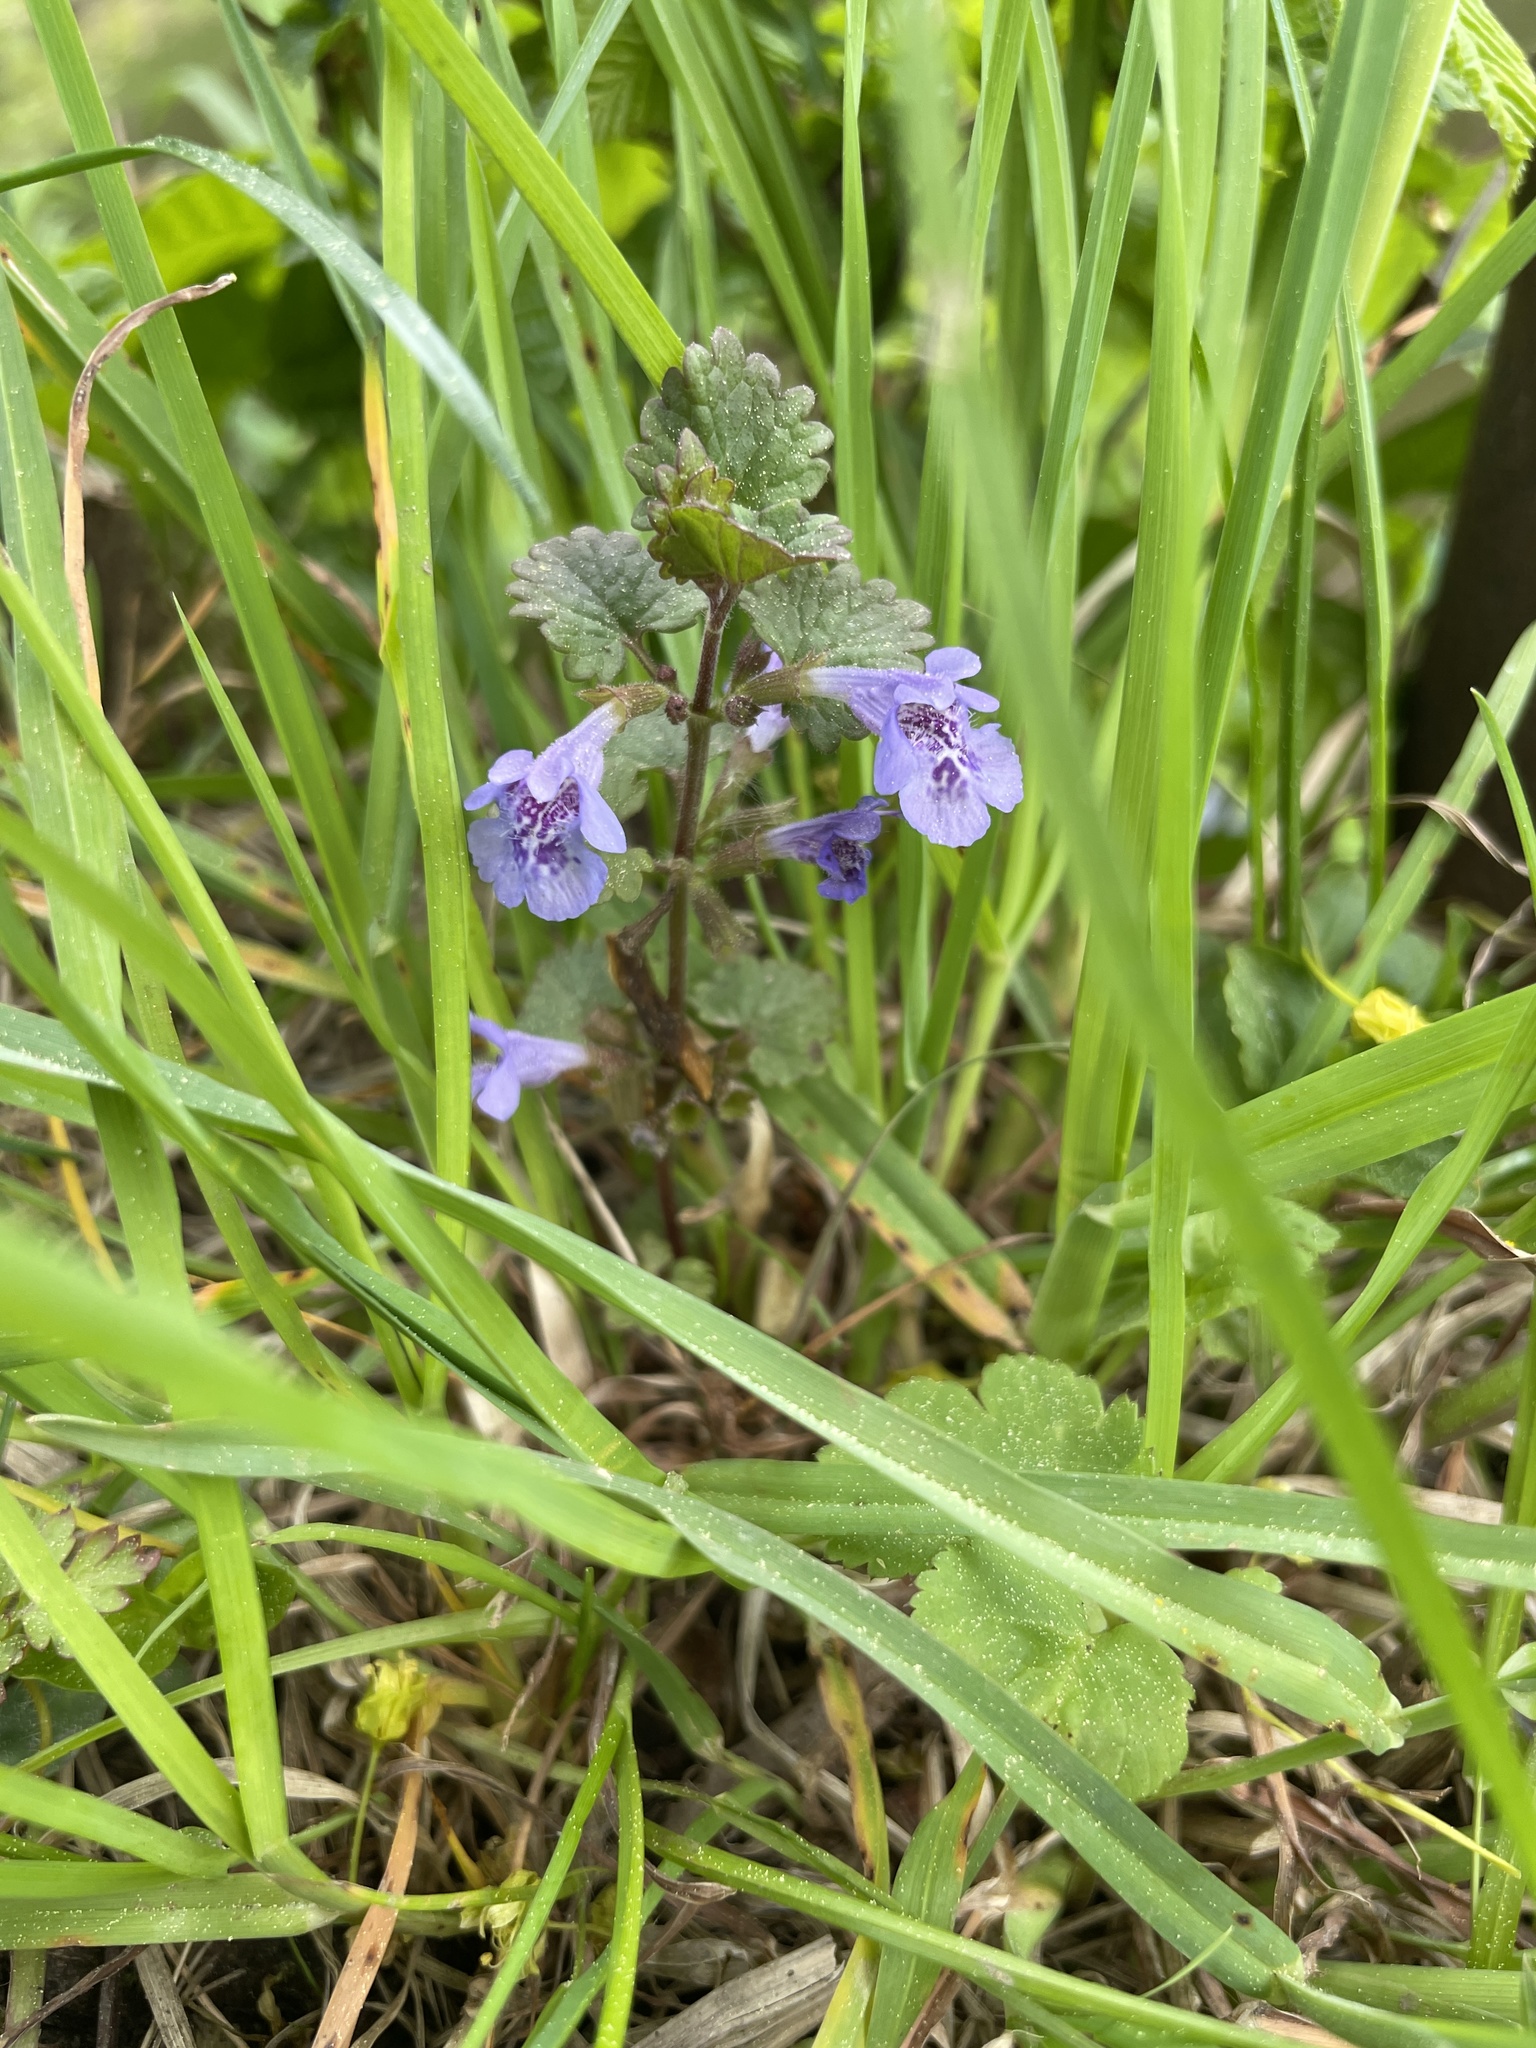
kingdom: Plantae
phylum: Tracheophyta
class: Magnoliopsida
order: Lamiales
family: Lamiaceae
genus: Glechoma
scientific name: Glechoma hederacea
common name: Ground ivy
